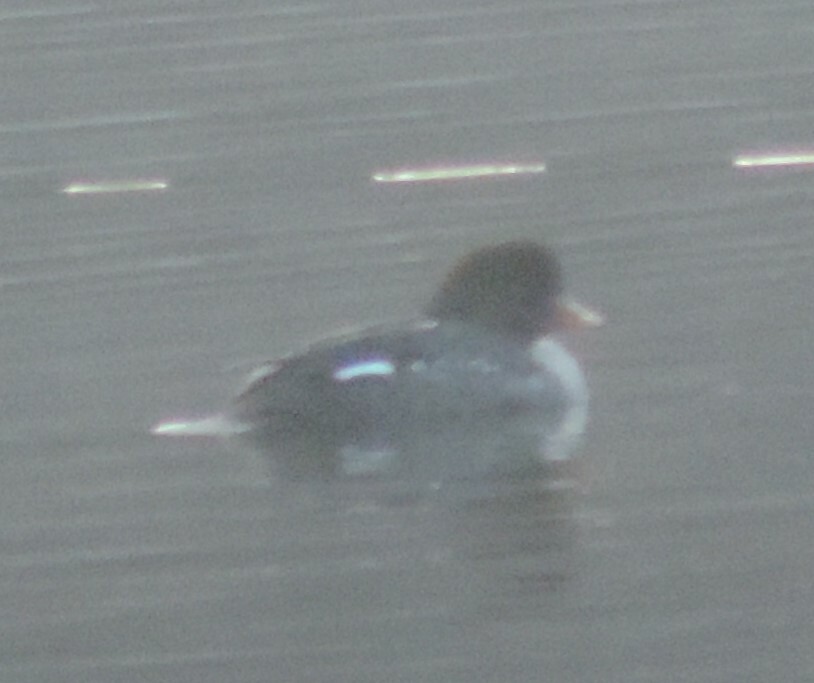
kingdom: Animalia
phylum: Chordata
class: Aves
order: Anseriformes
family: Anatidae
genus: Bucephala
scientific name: Bucephala islandica
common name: Barrow's goldeneye
